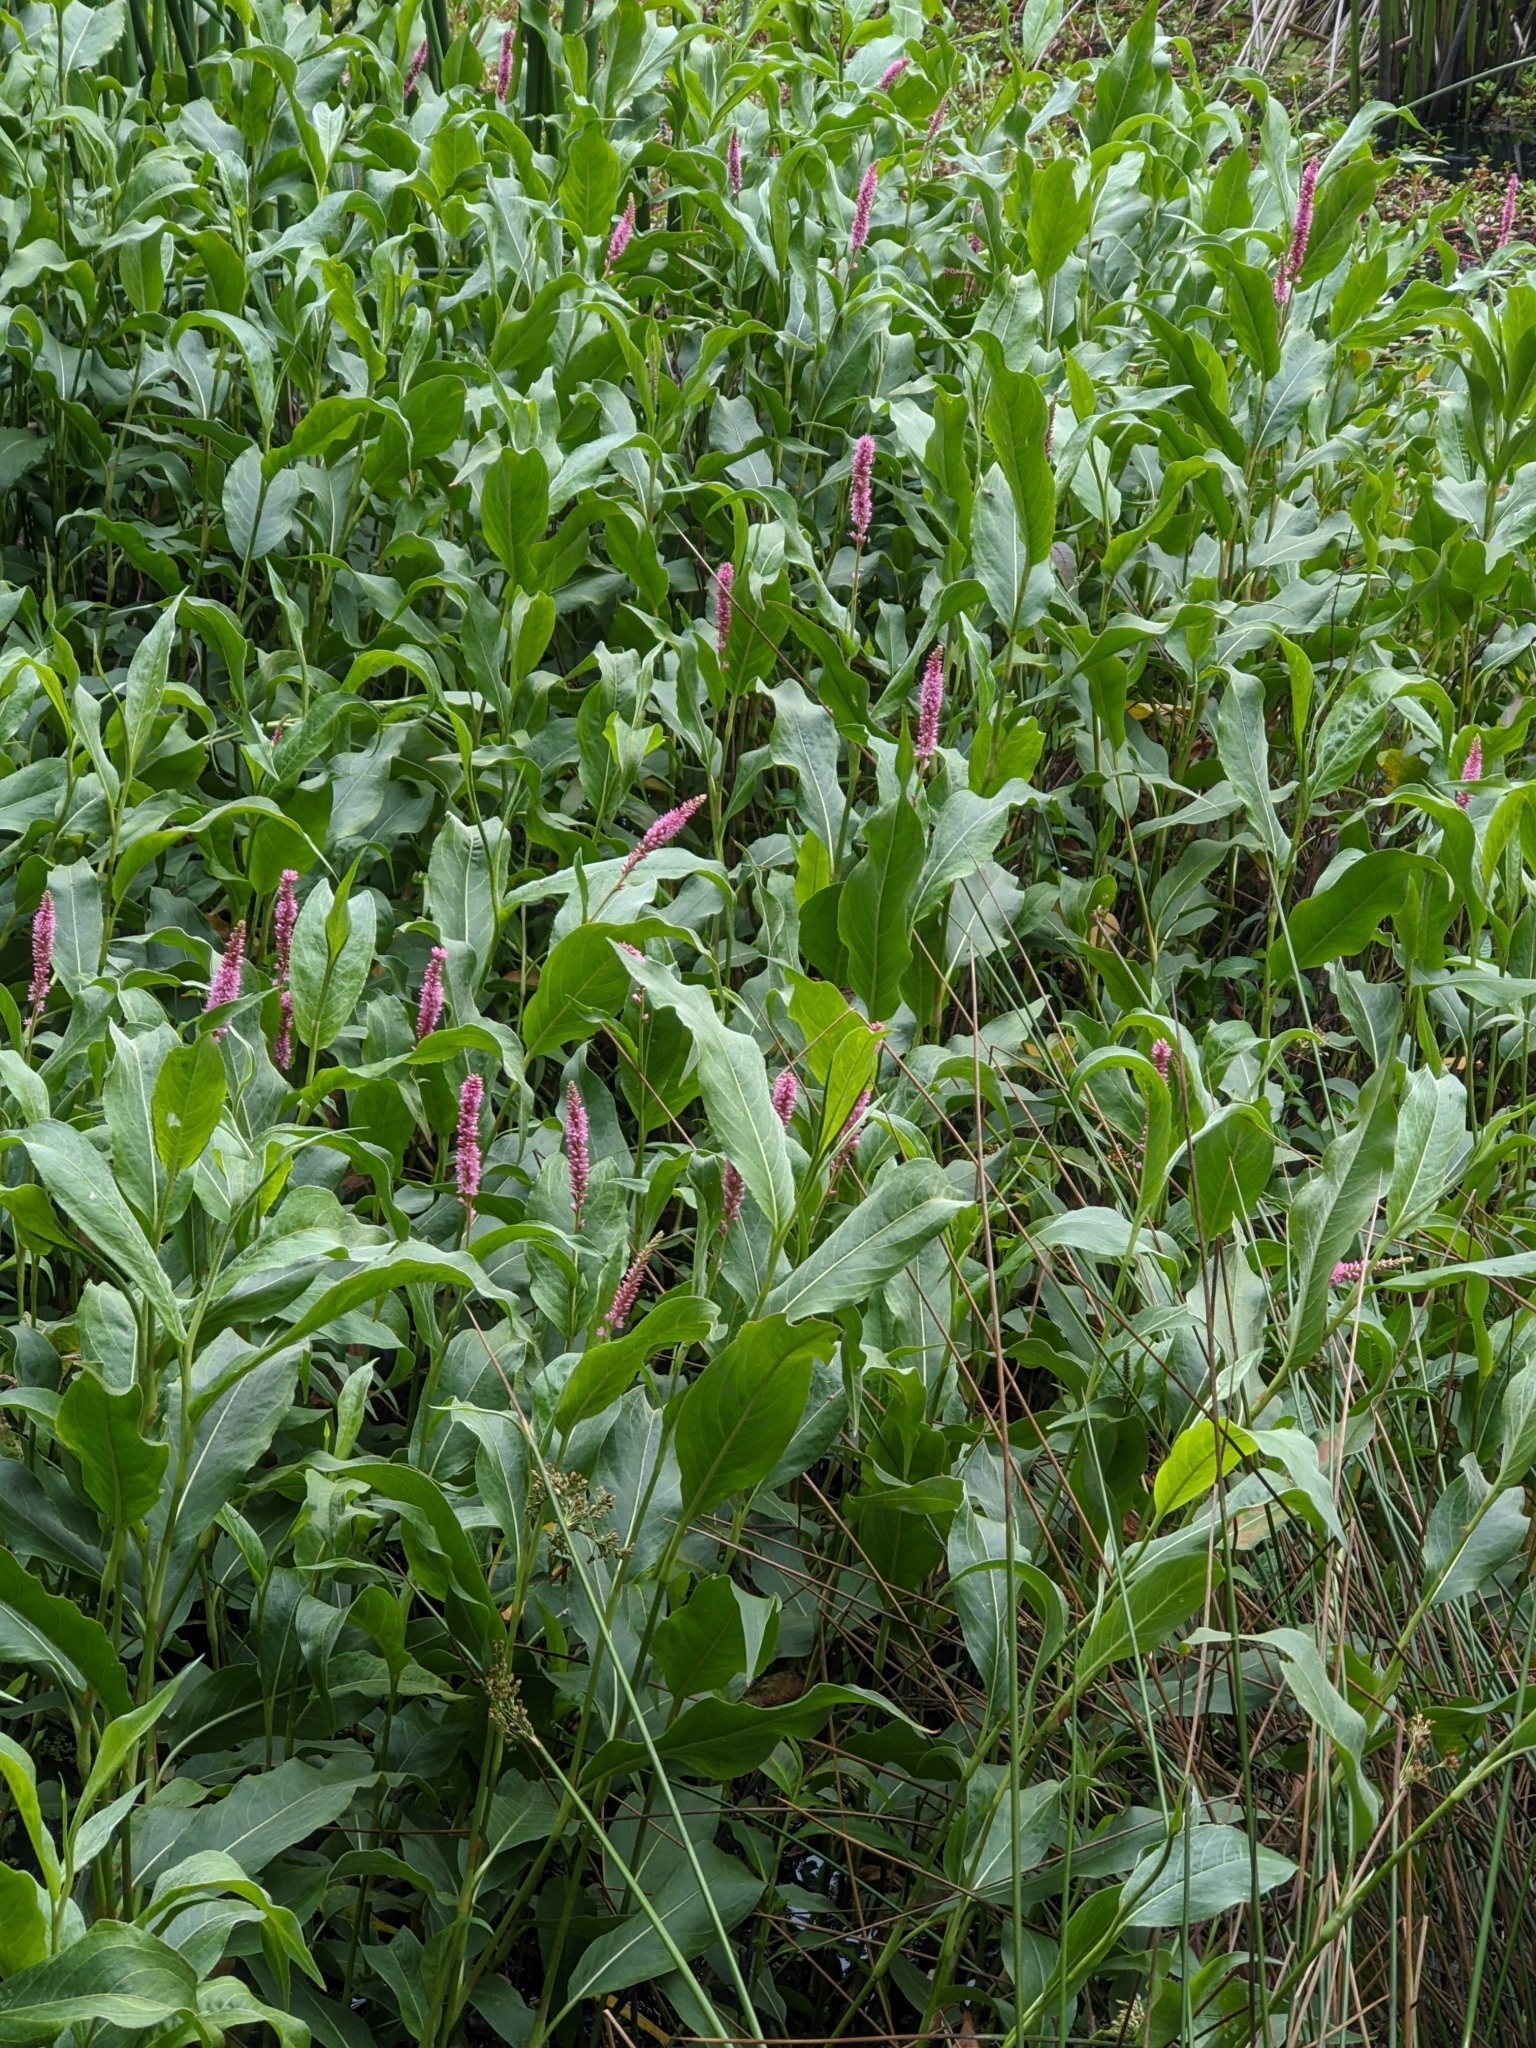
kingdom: Plantae
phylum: Tracheophyta
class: Magnoliopsida
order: Caryophyllales
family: Polygonaceae
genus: Persicaria
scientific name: Persicaria amphibia
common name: Amphibious bistort
